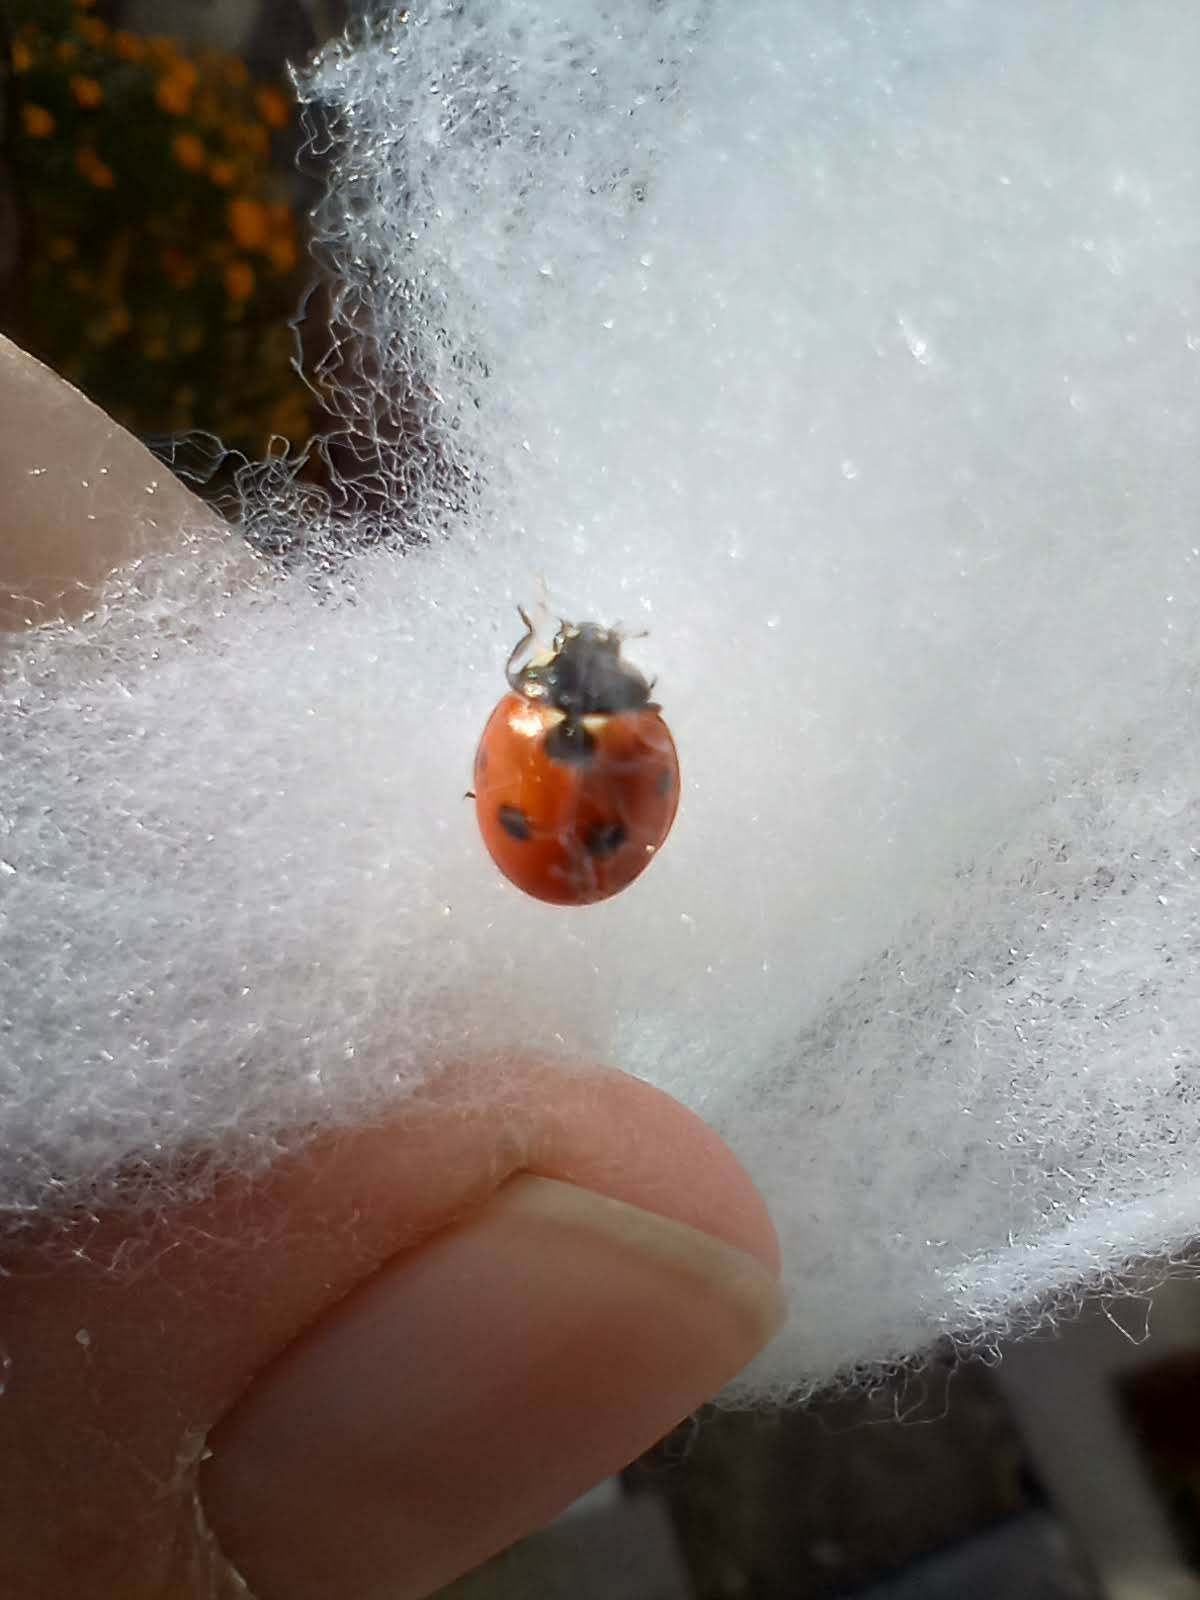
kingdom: Animalia
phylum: Arthropoda
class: Insecta
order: Coleoptera
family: Coccinellidae
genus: Coccinella
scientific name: Coccinella septempunctata
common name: Sevenspotted lady beetle
